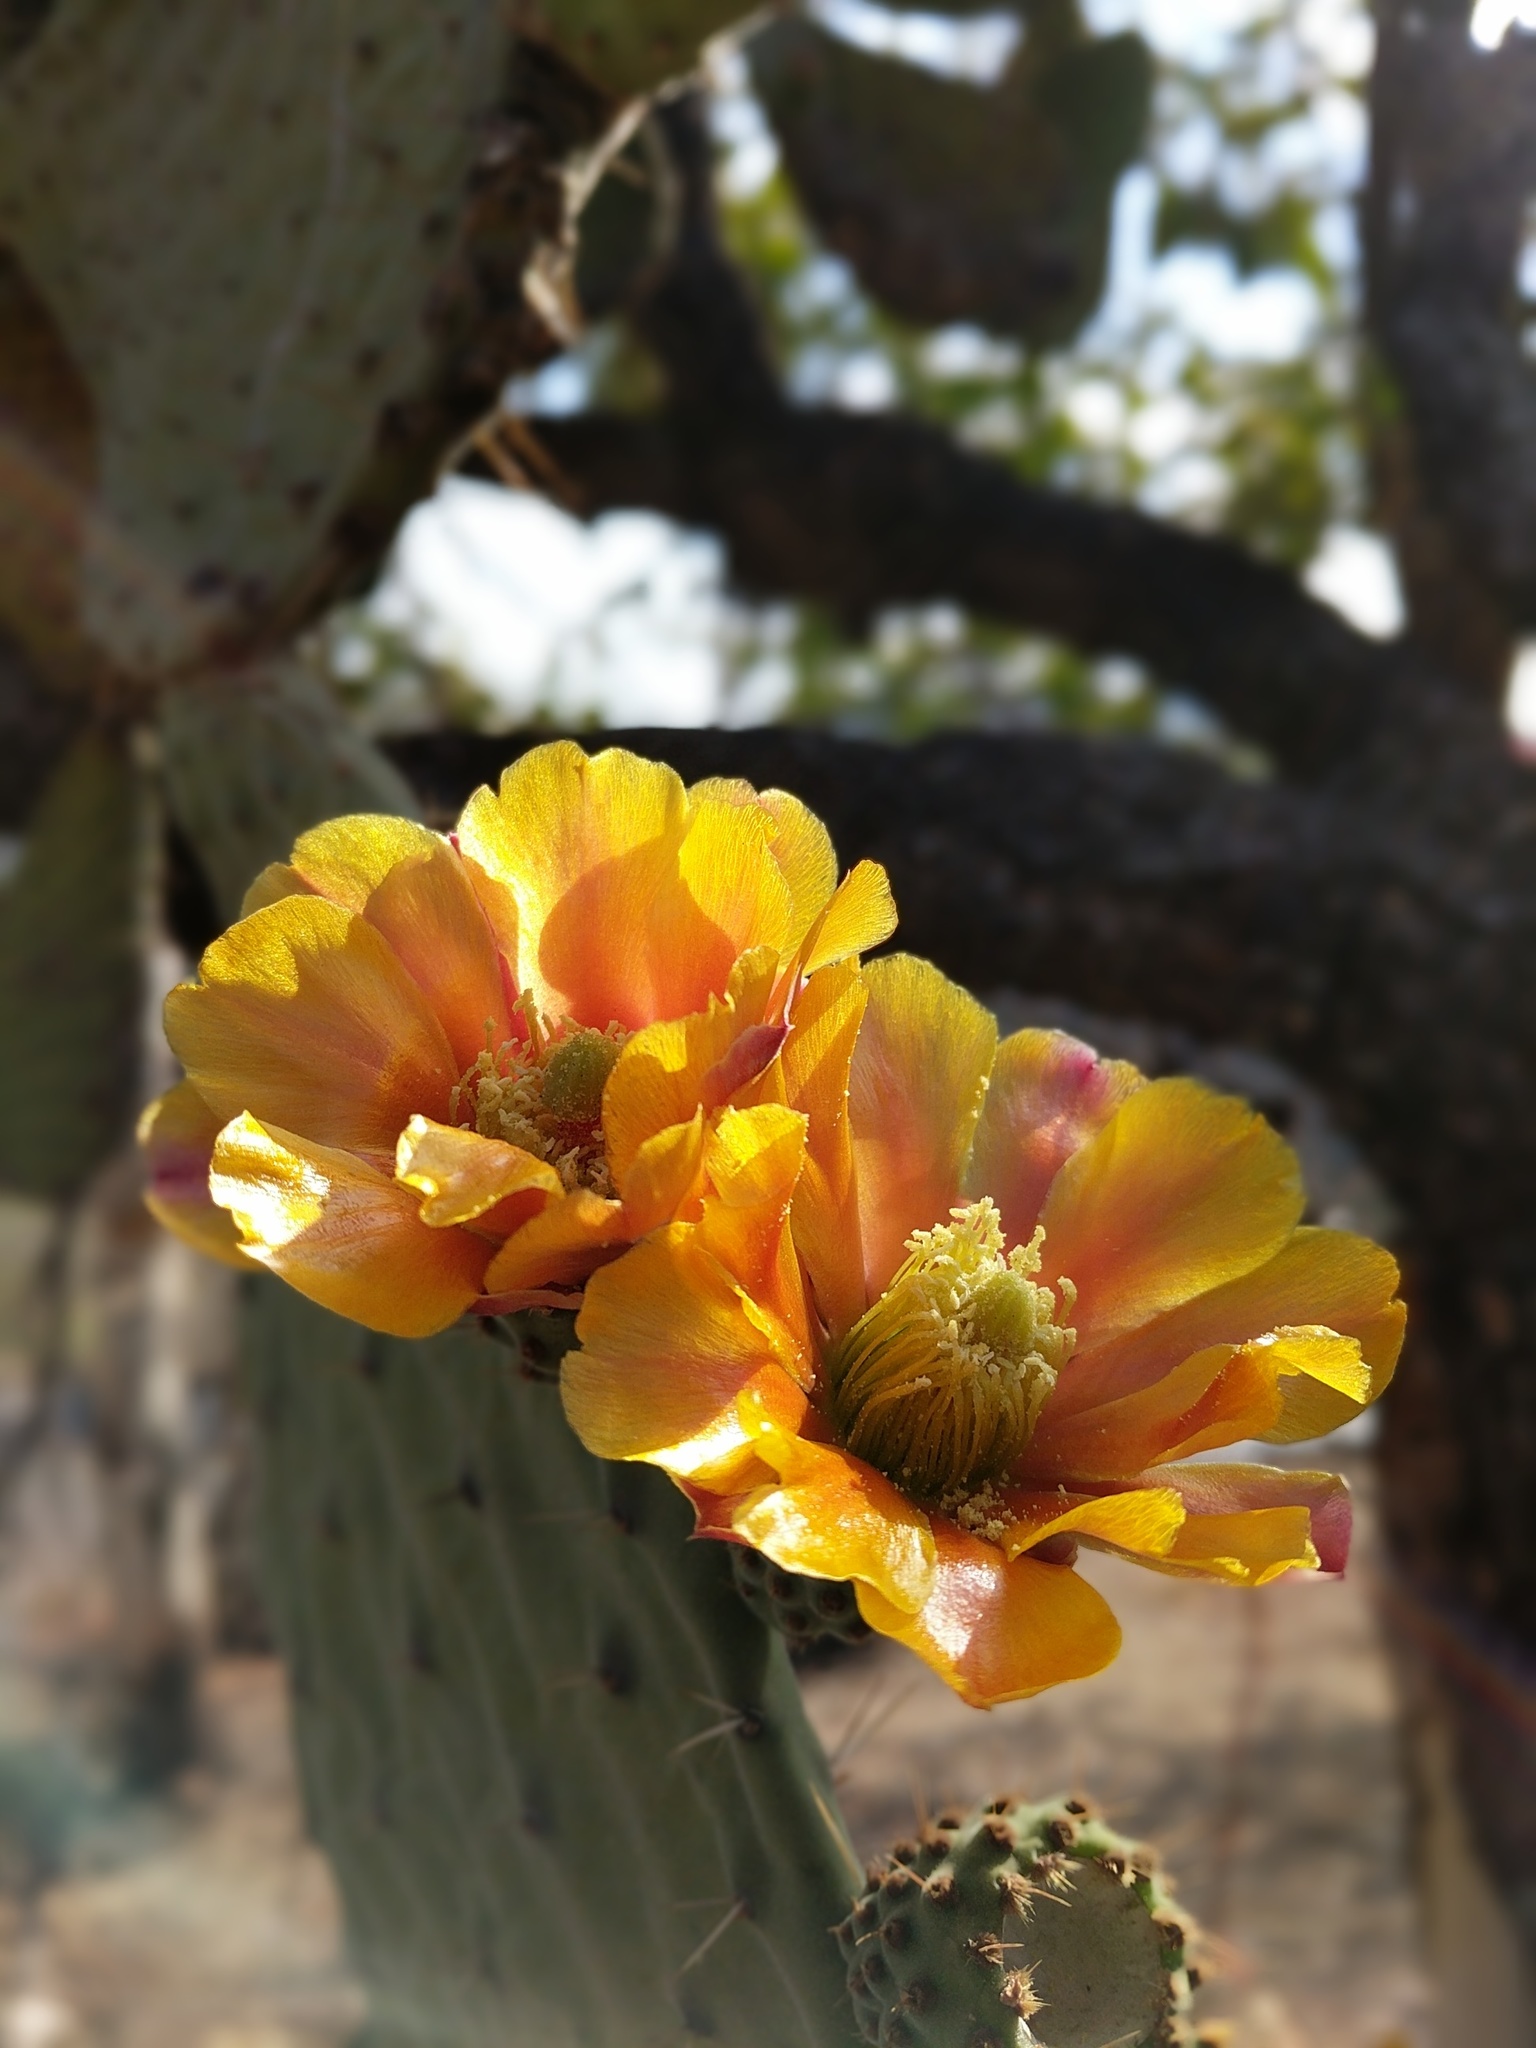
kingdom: Plantae
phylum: Tracheophyta
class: Magnoliopsida
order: Caryophyllales
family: Cactaceae
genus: Opuntia
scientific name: Opuntia tomentosa
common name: Woollyjoint pricklypear
